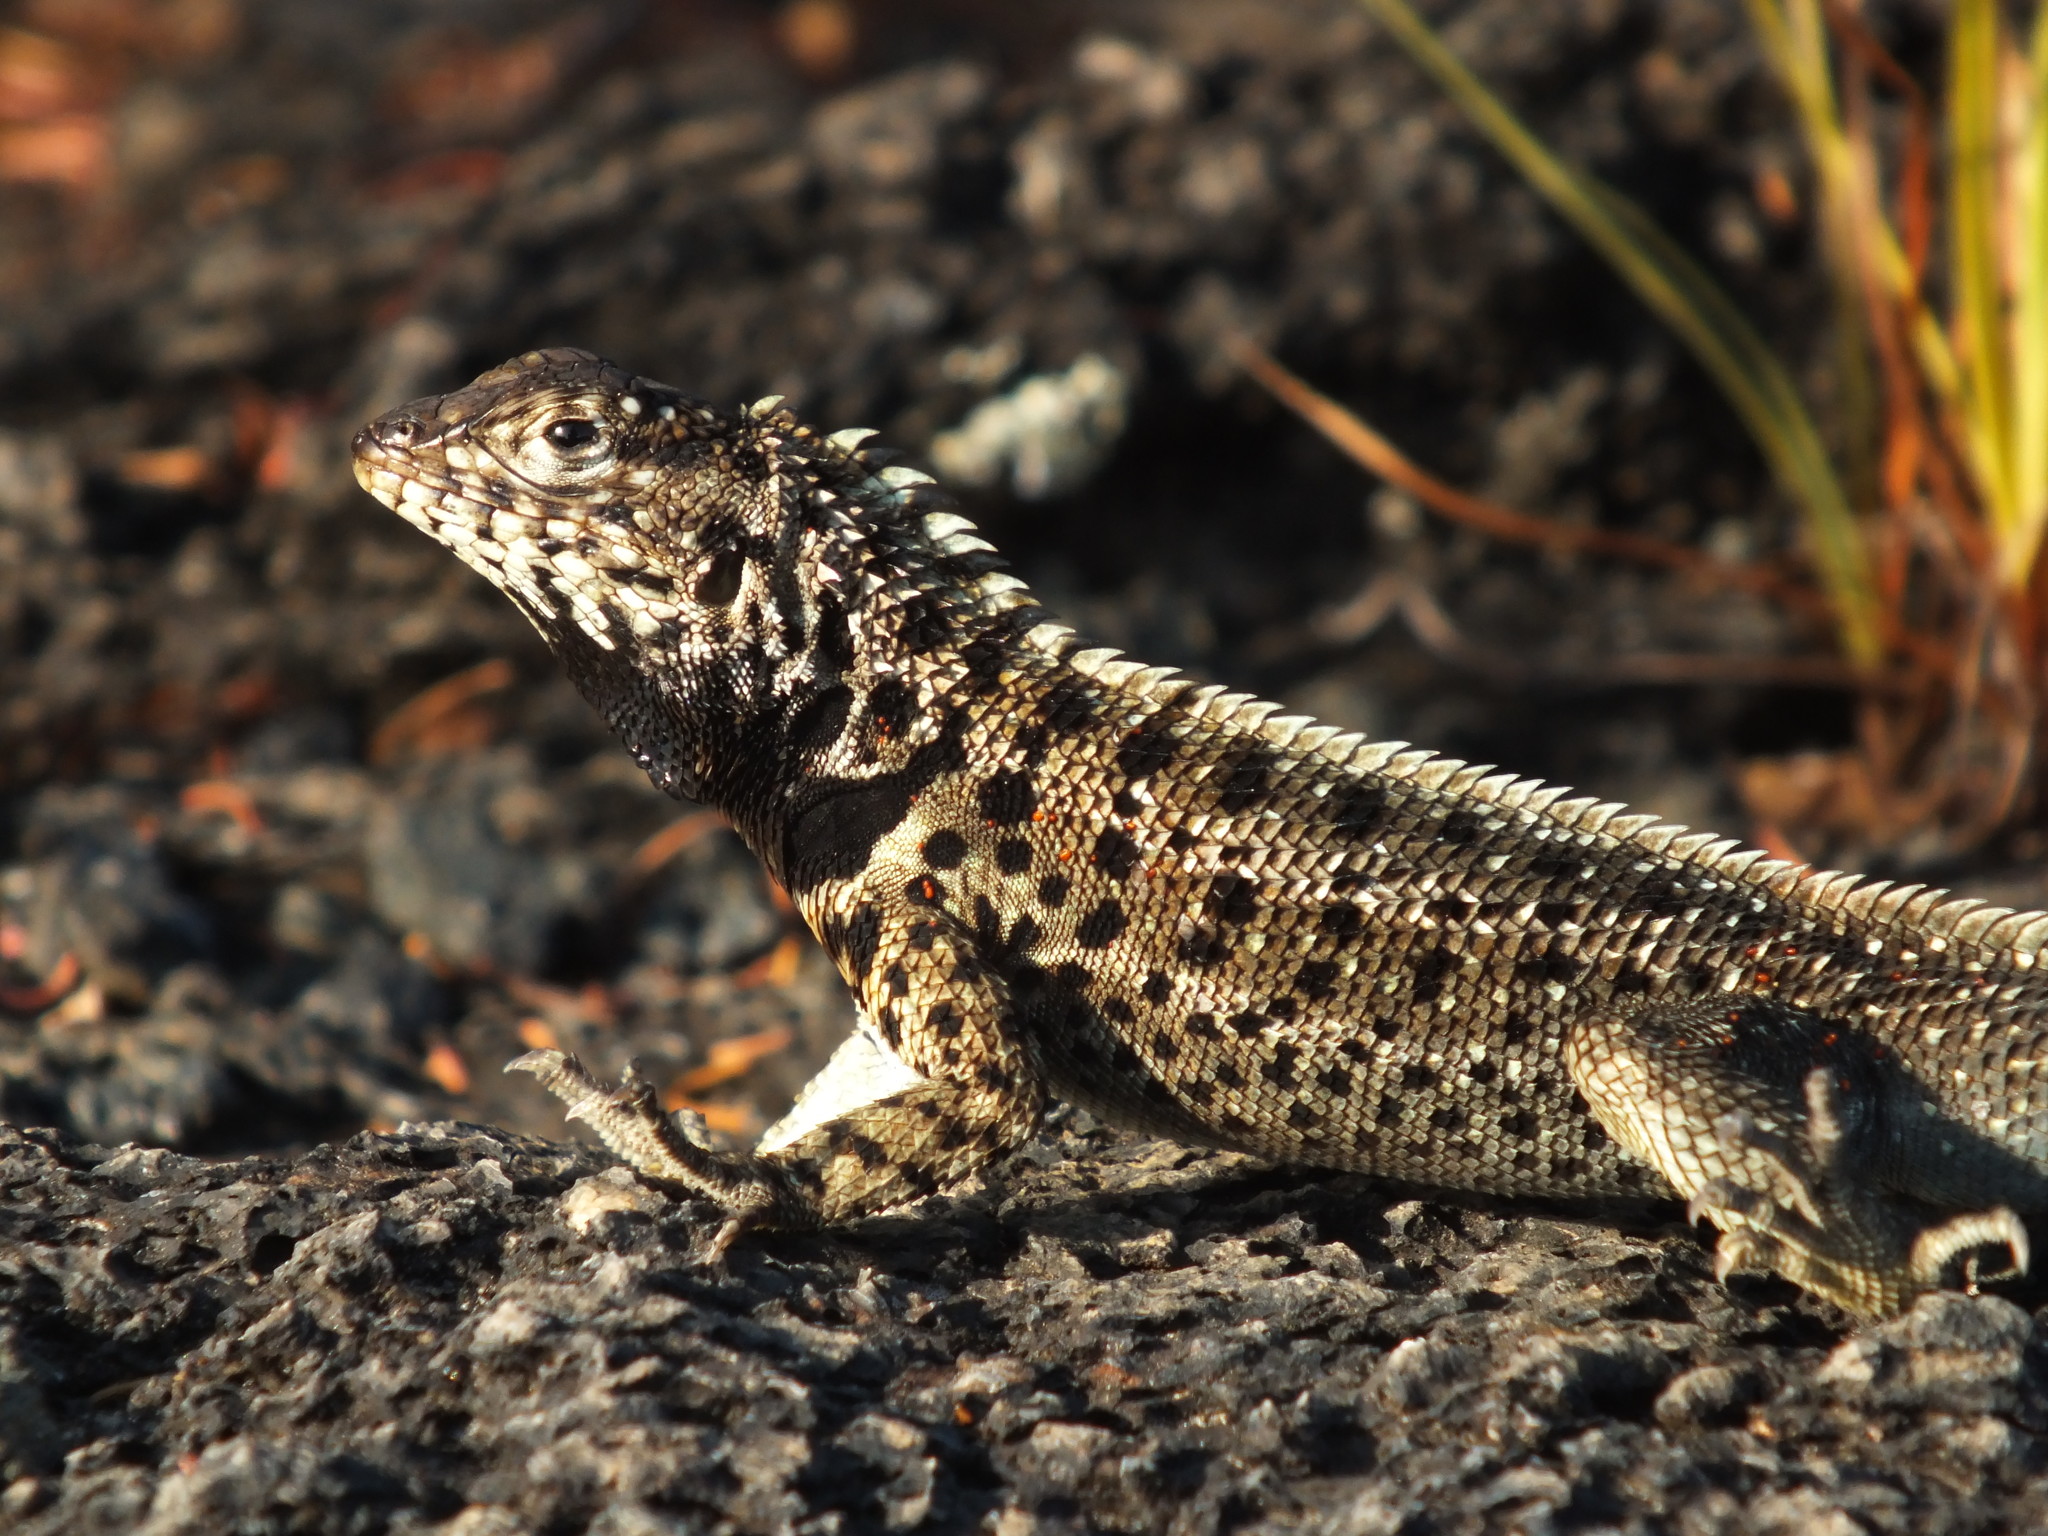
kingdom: Animalia
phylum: Chordata
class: Squamata
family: Tropiduridae
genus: Microlophus
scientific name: Microlophus albemarlensis
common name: Galapagos lava lizard
